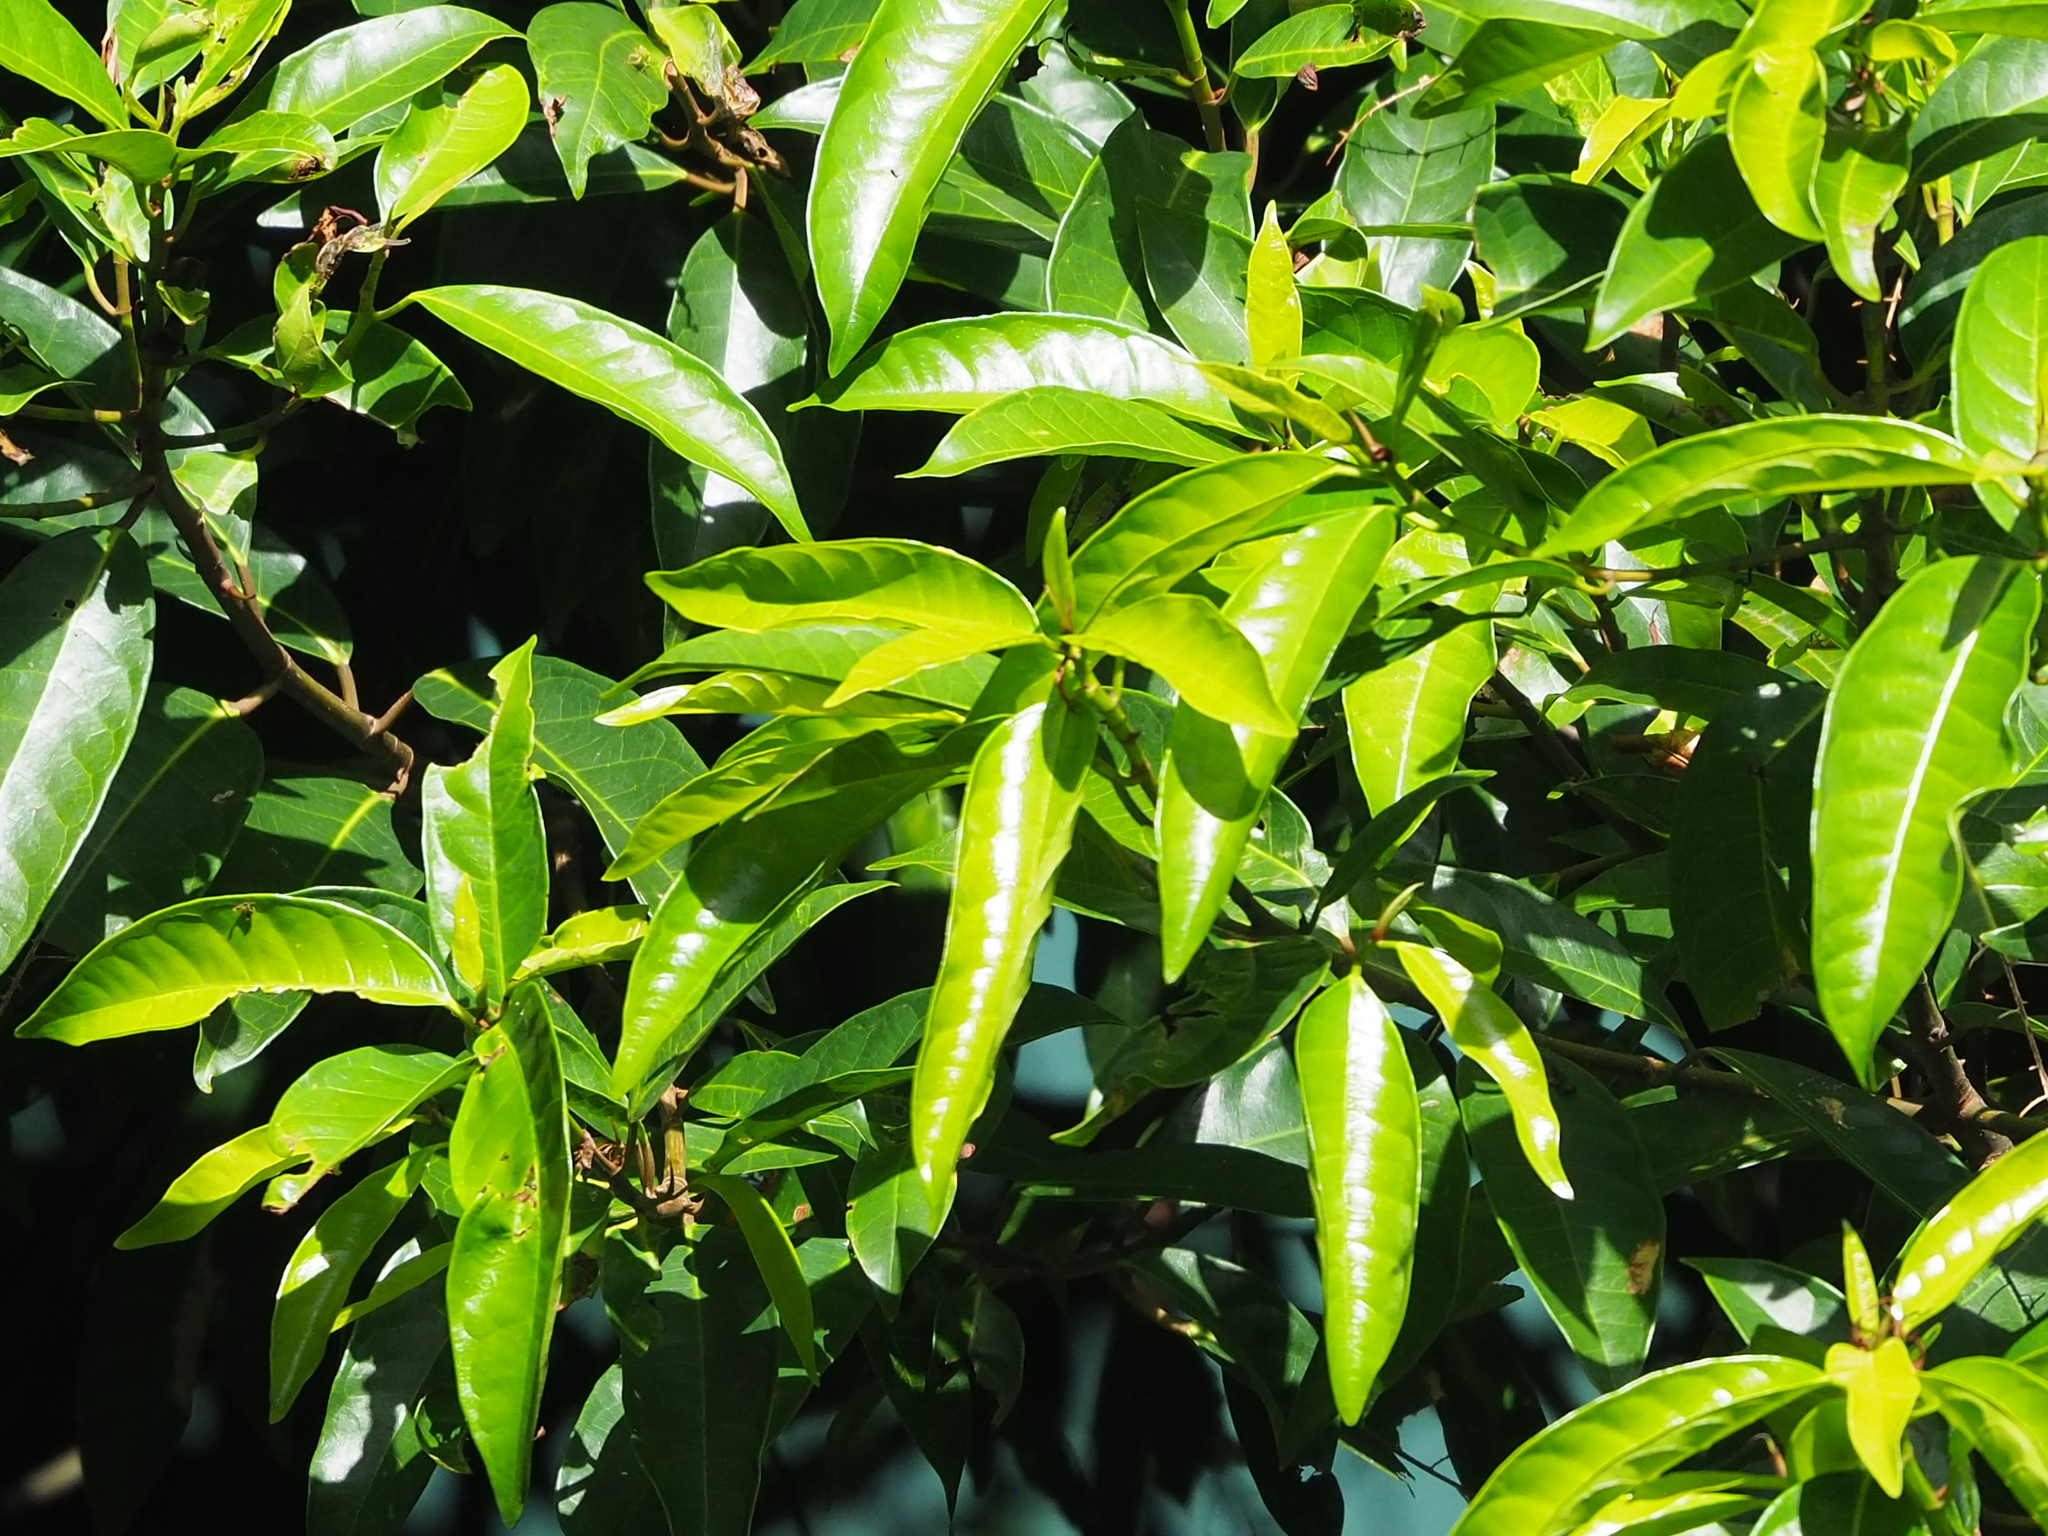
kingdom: Plantae
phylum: Tracheophyta
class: Magnoliopsida
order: Rosales
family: Moraceae
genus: Ficus
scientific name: Ficus nervosa
